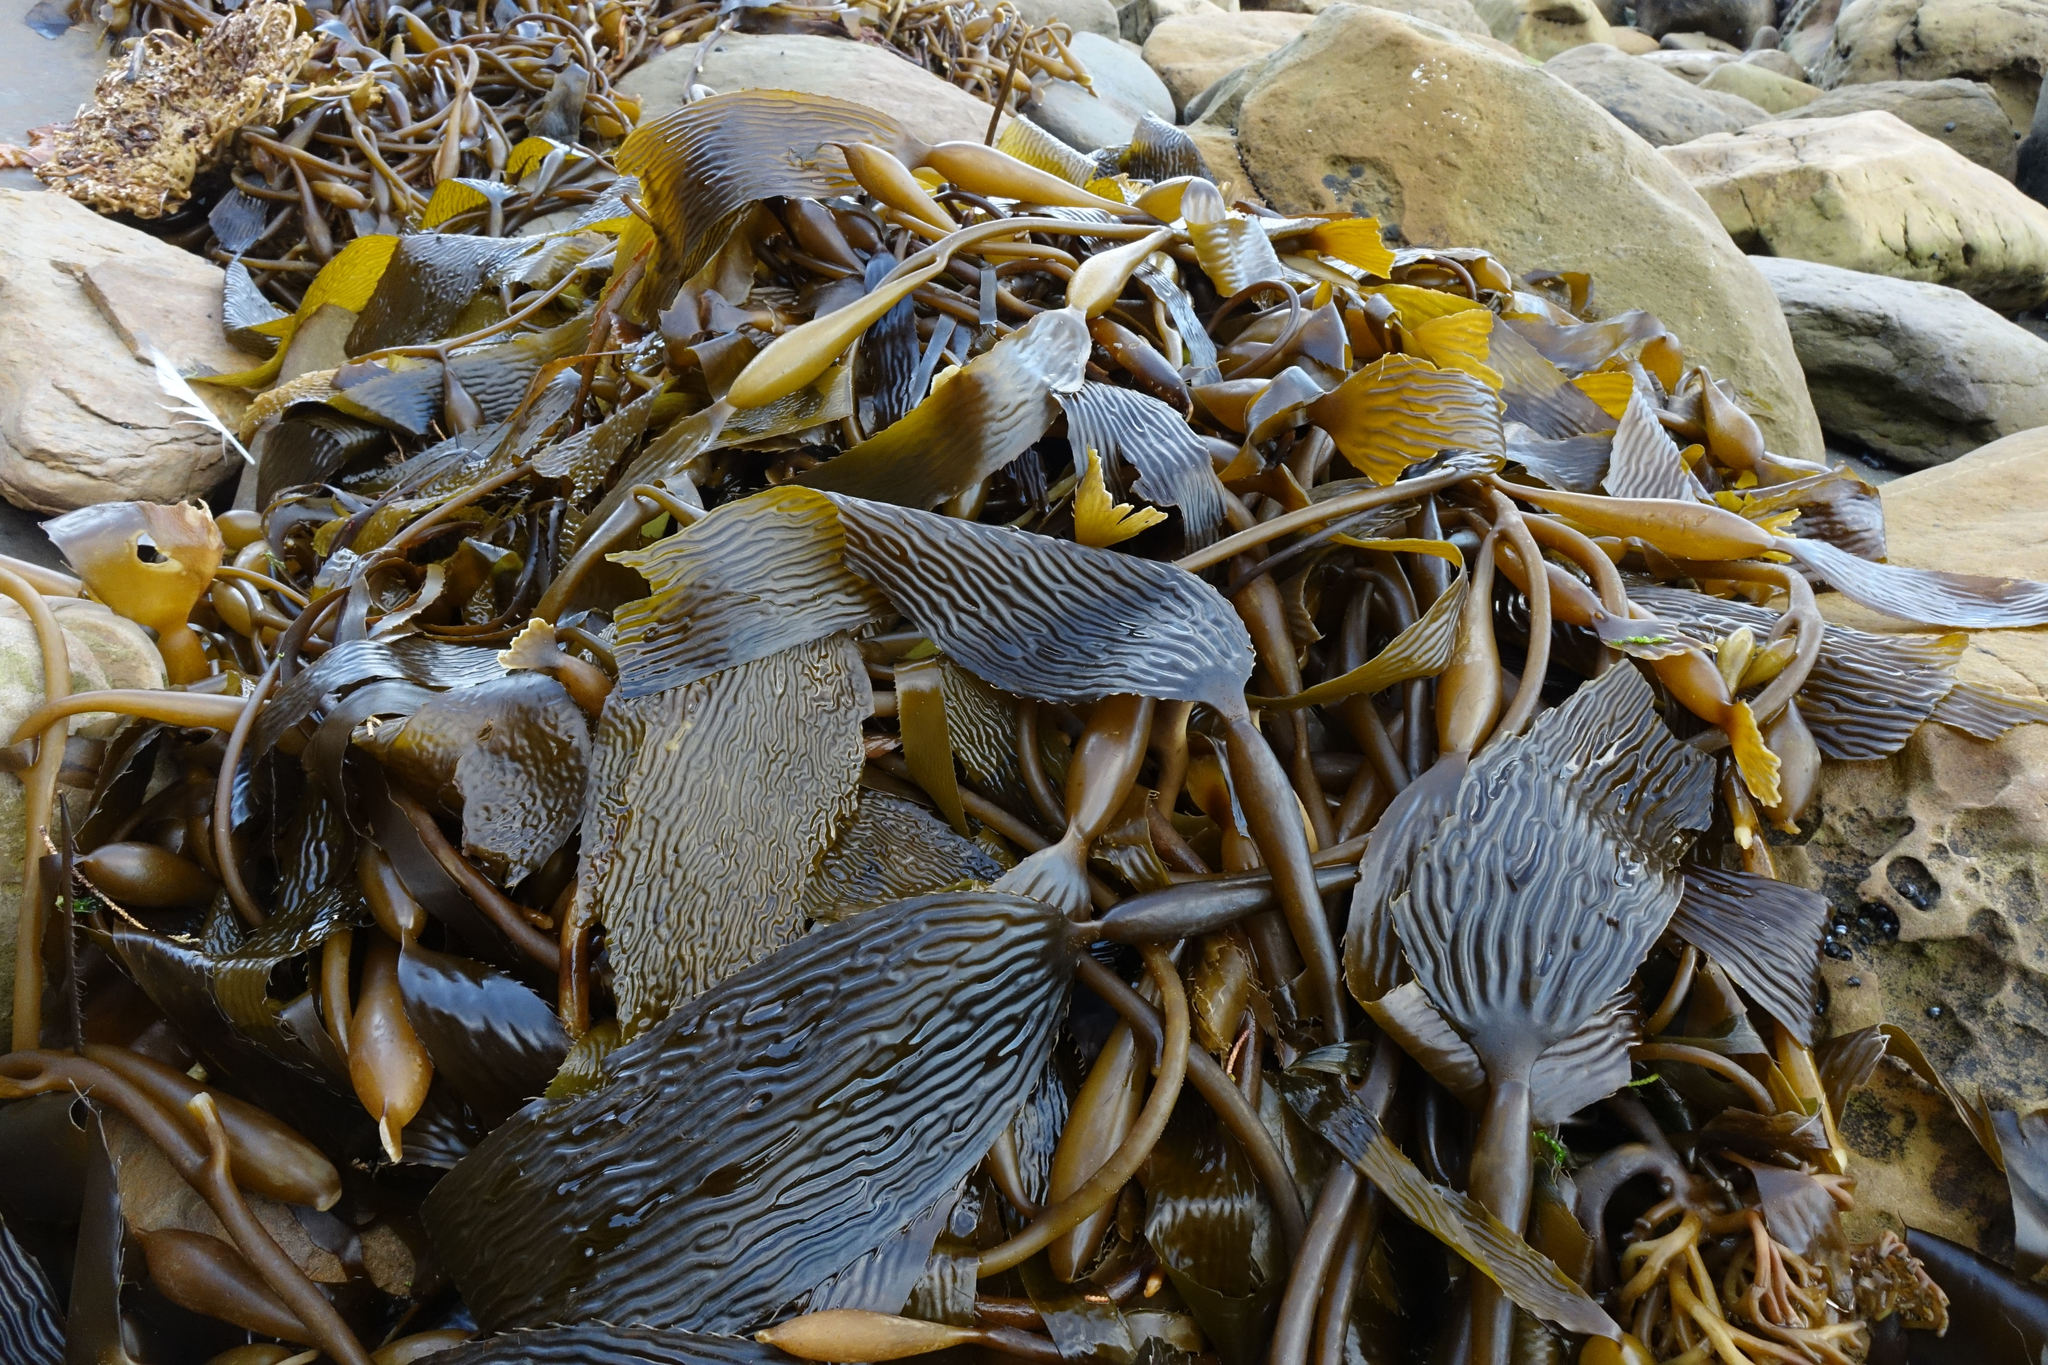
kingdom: Chromista
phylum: Ochrophyta
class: Phaeophyceae
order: Laminariales
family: Laminariaceae
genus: Macrocystis
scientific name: Macrocystis pyrifera
